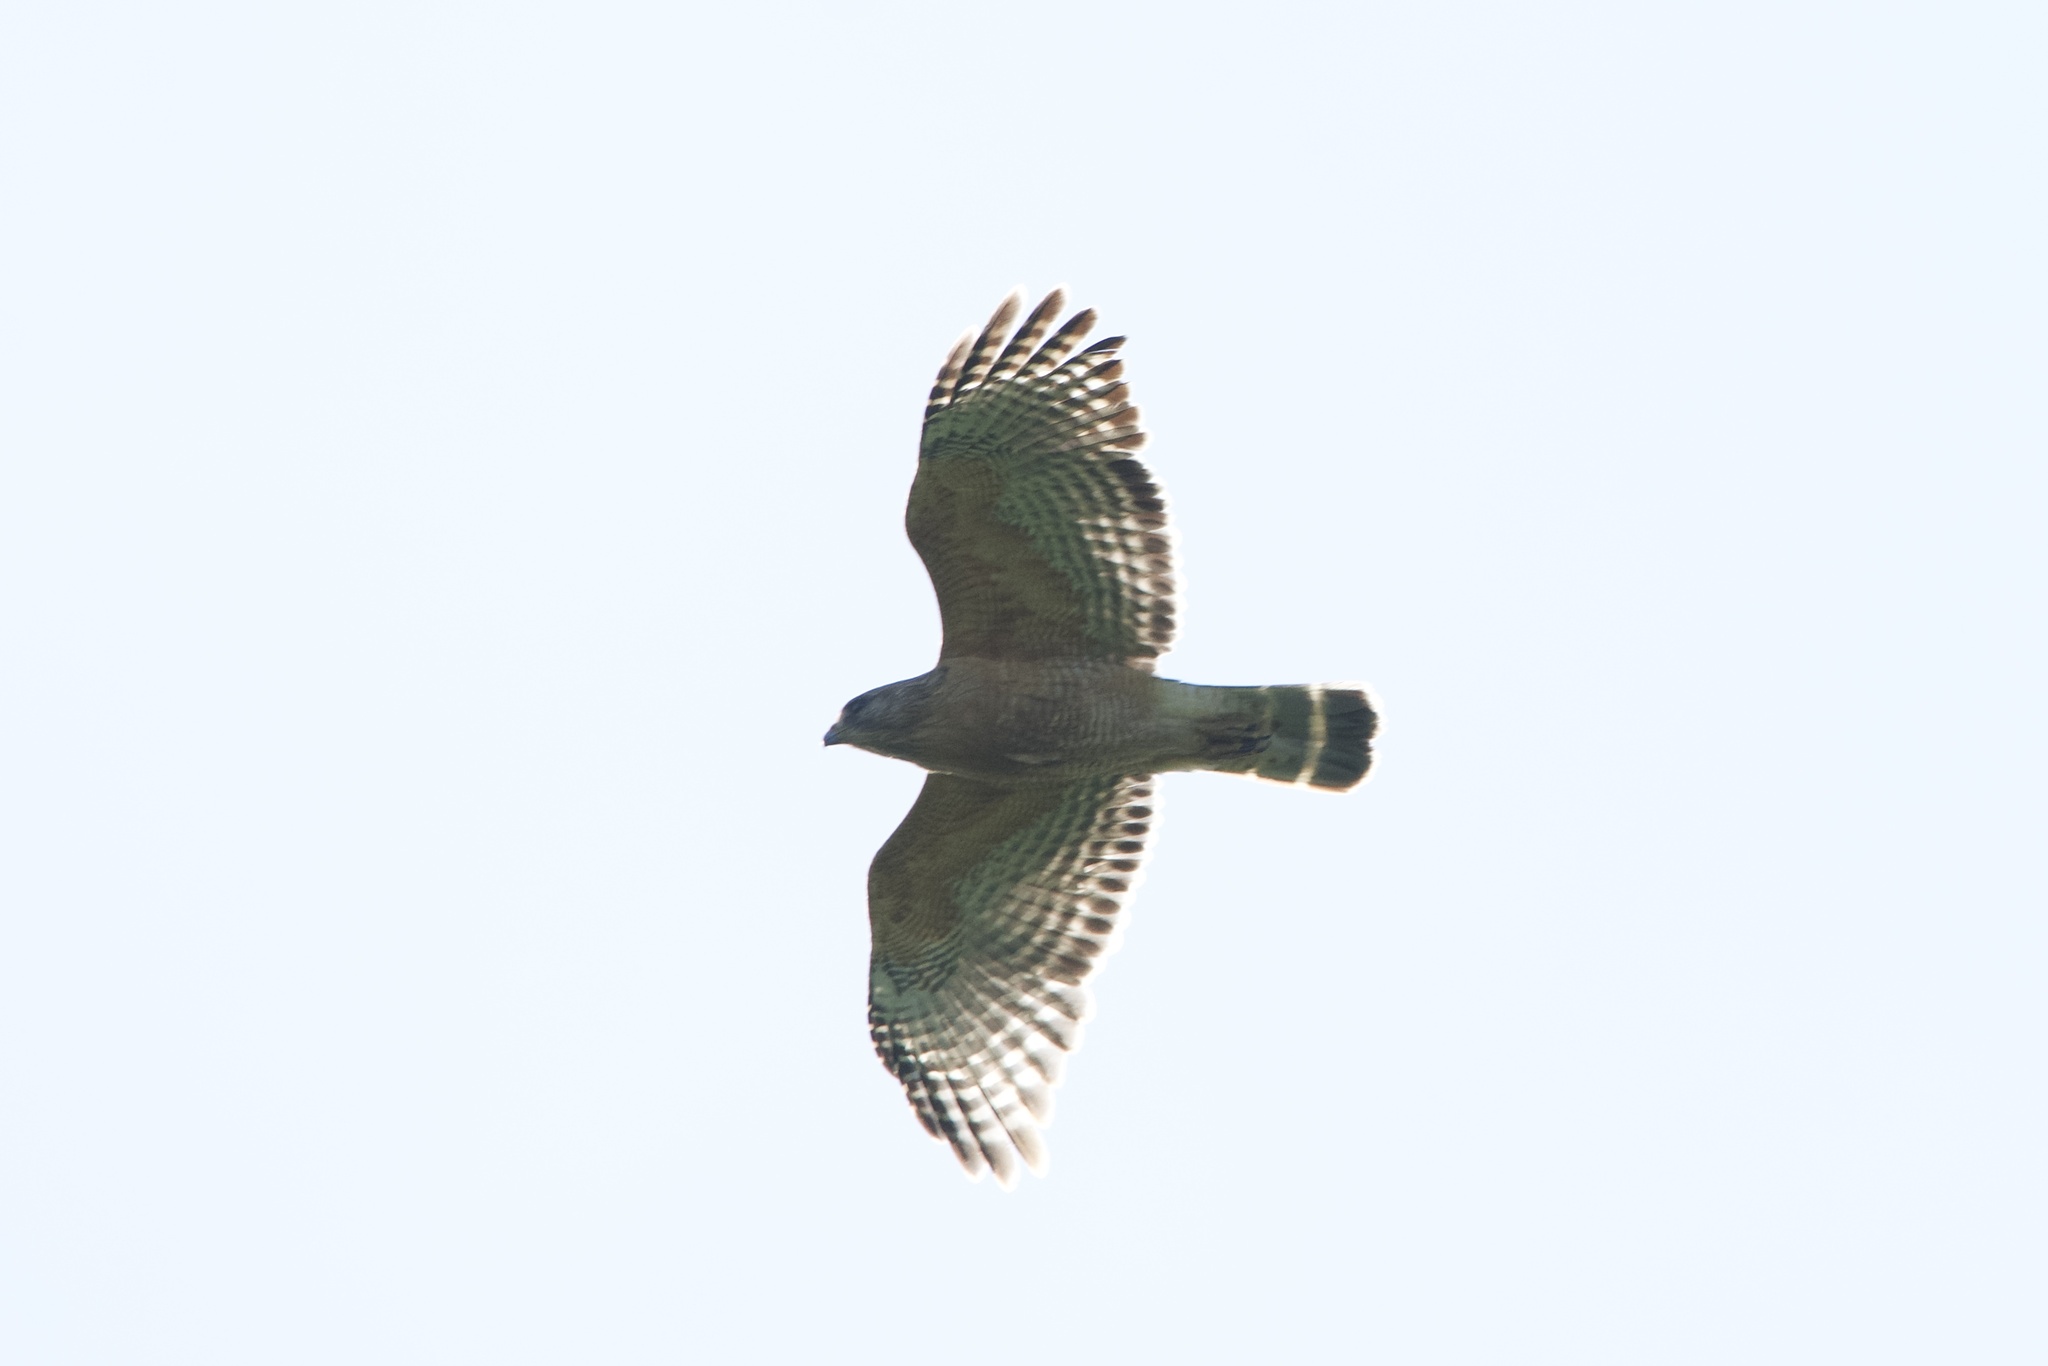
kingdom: Animalia
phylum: Chordata
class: Aves
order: Accipitriformes
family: Accipitridae
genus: Buteo
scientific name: Buteo lineatus
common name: Red-shouldered hawk
